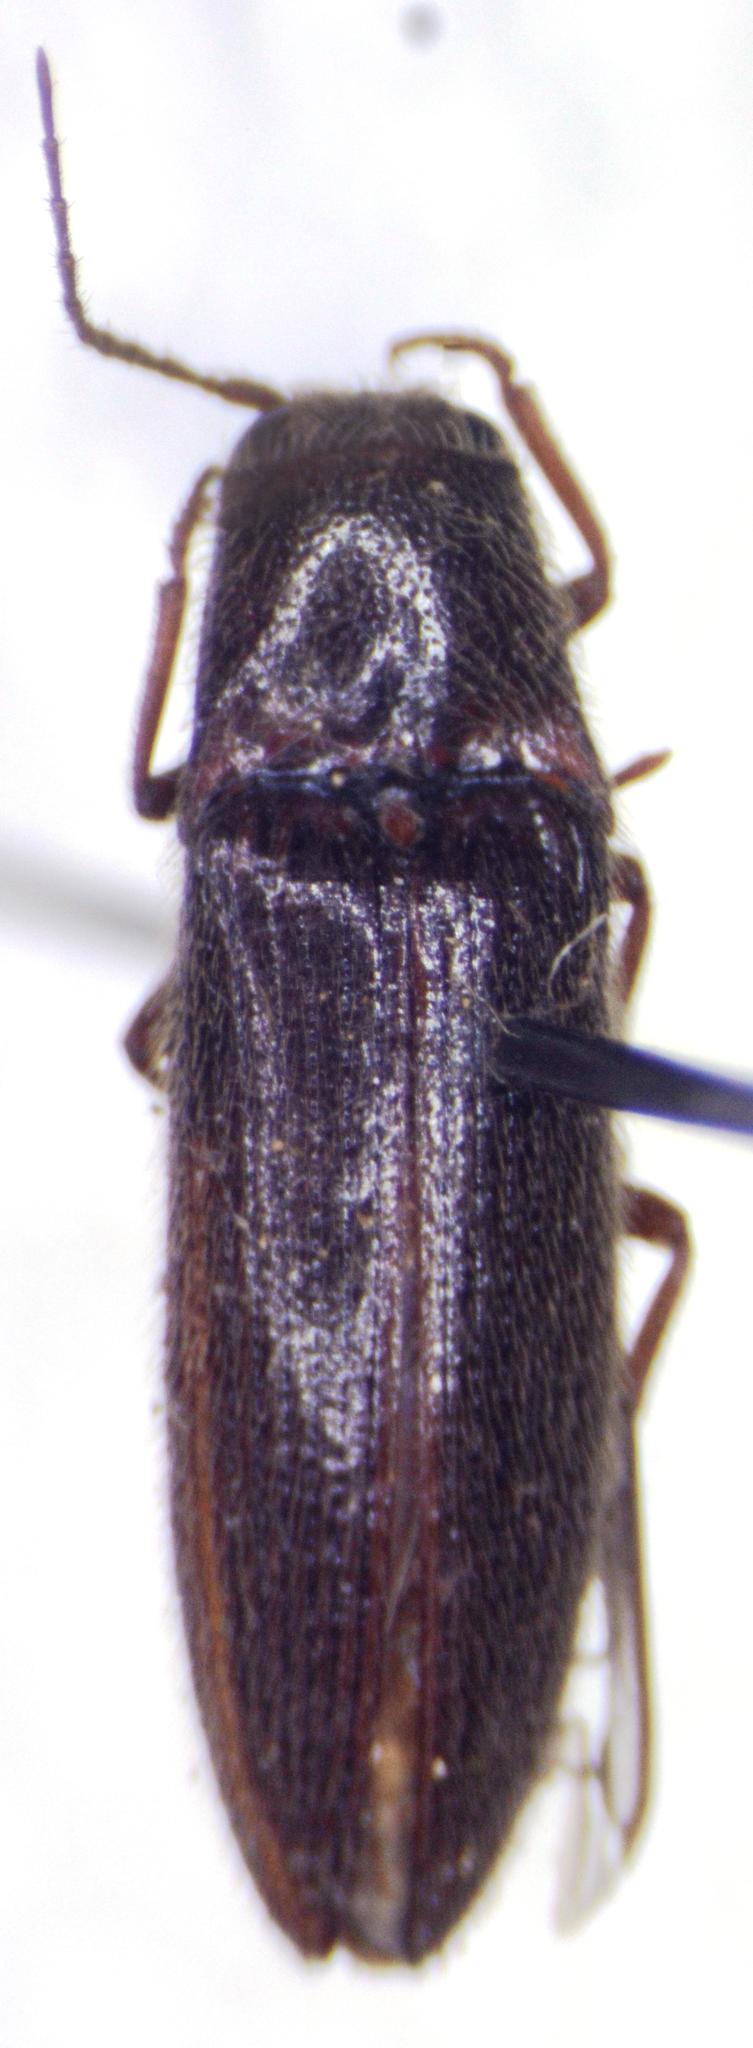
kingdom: Animalia
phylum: Arthropoda
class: Insecta
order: Coleoptera
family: Elateridae
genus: Dipropus
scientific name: Dipropus
